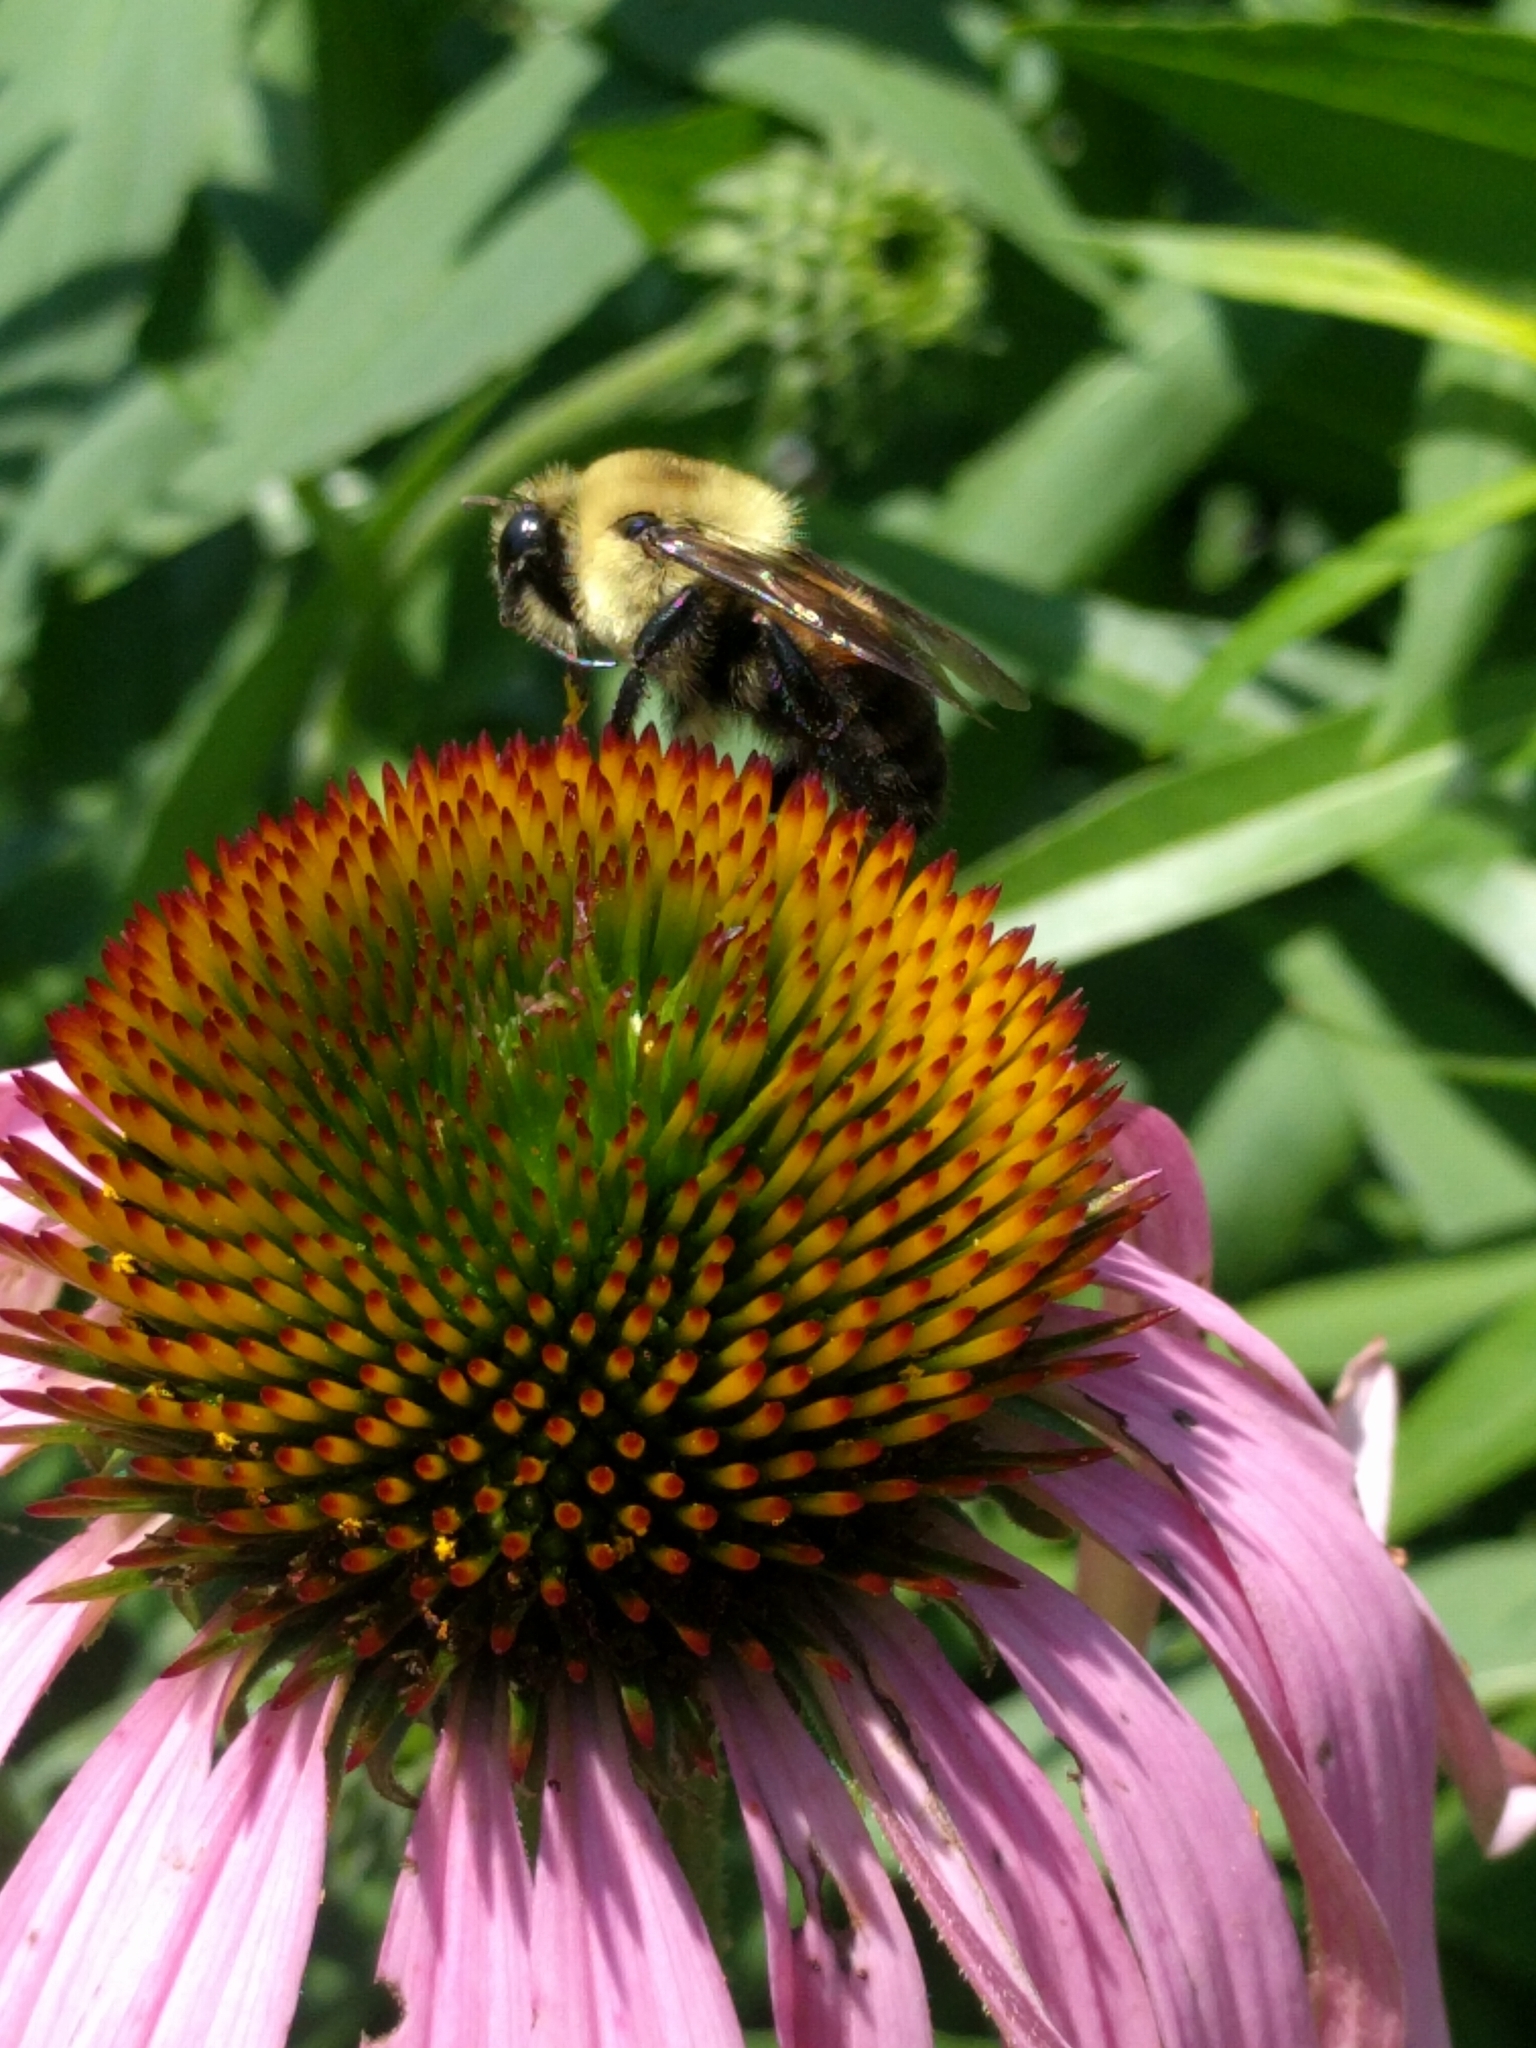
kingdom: Animalia
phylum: Arthropoda
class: Insecta
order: Hymenoptera
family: Apidae
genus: Bombus
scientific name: Bombus griseocollis
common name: Brown-belted bumble bee
